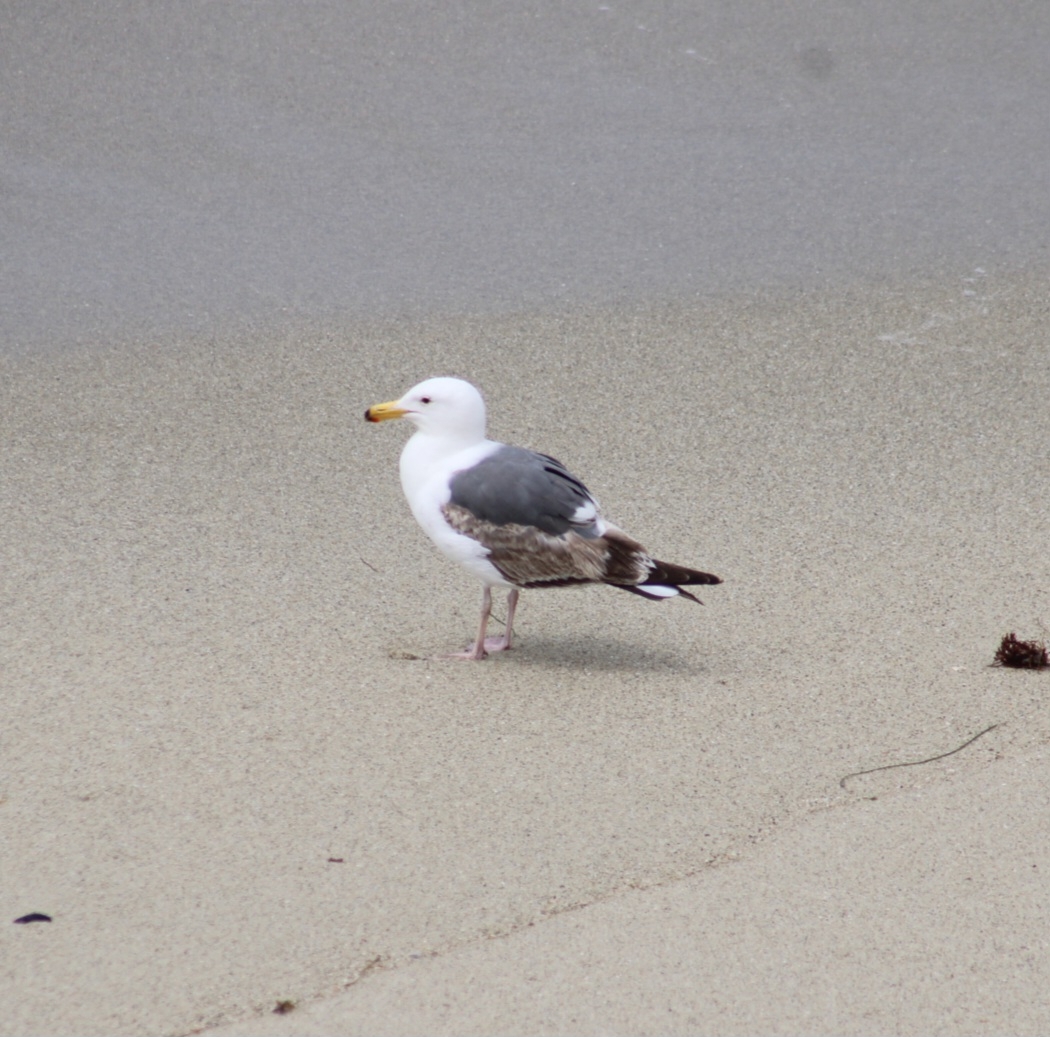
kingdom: Animalia
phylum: Chordata
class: Aves
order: Charadriiformes
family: Laridae
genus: Larus
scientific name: Larus occidentalis
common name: Western gull
